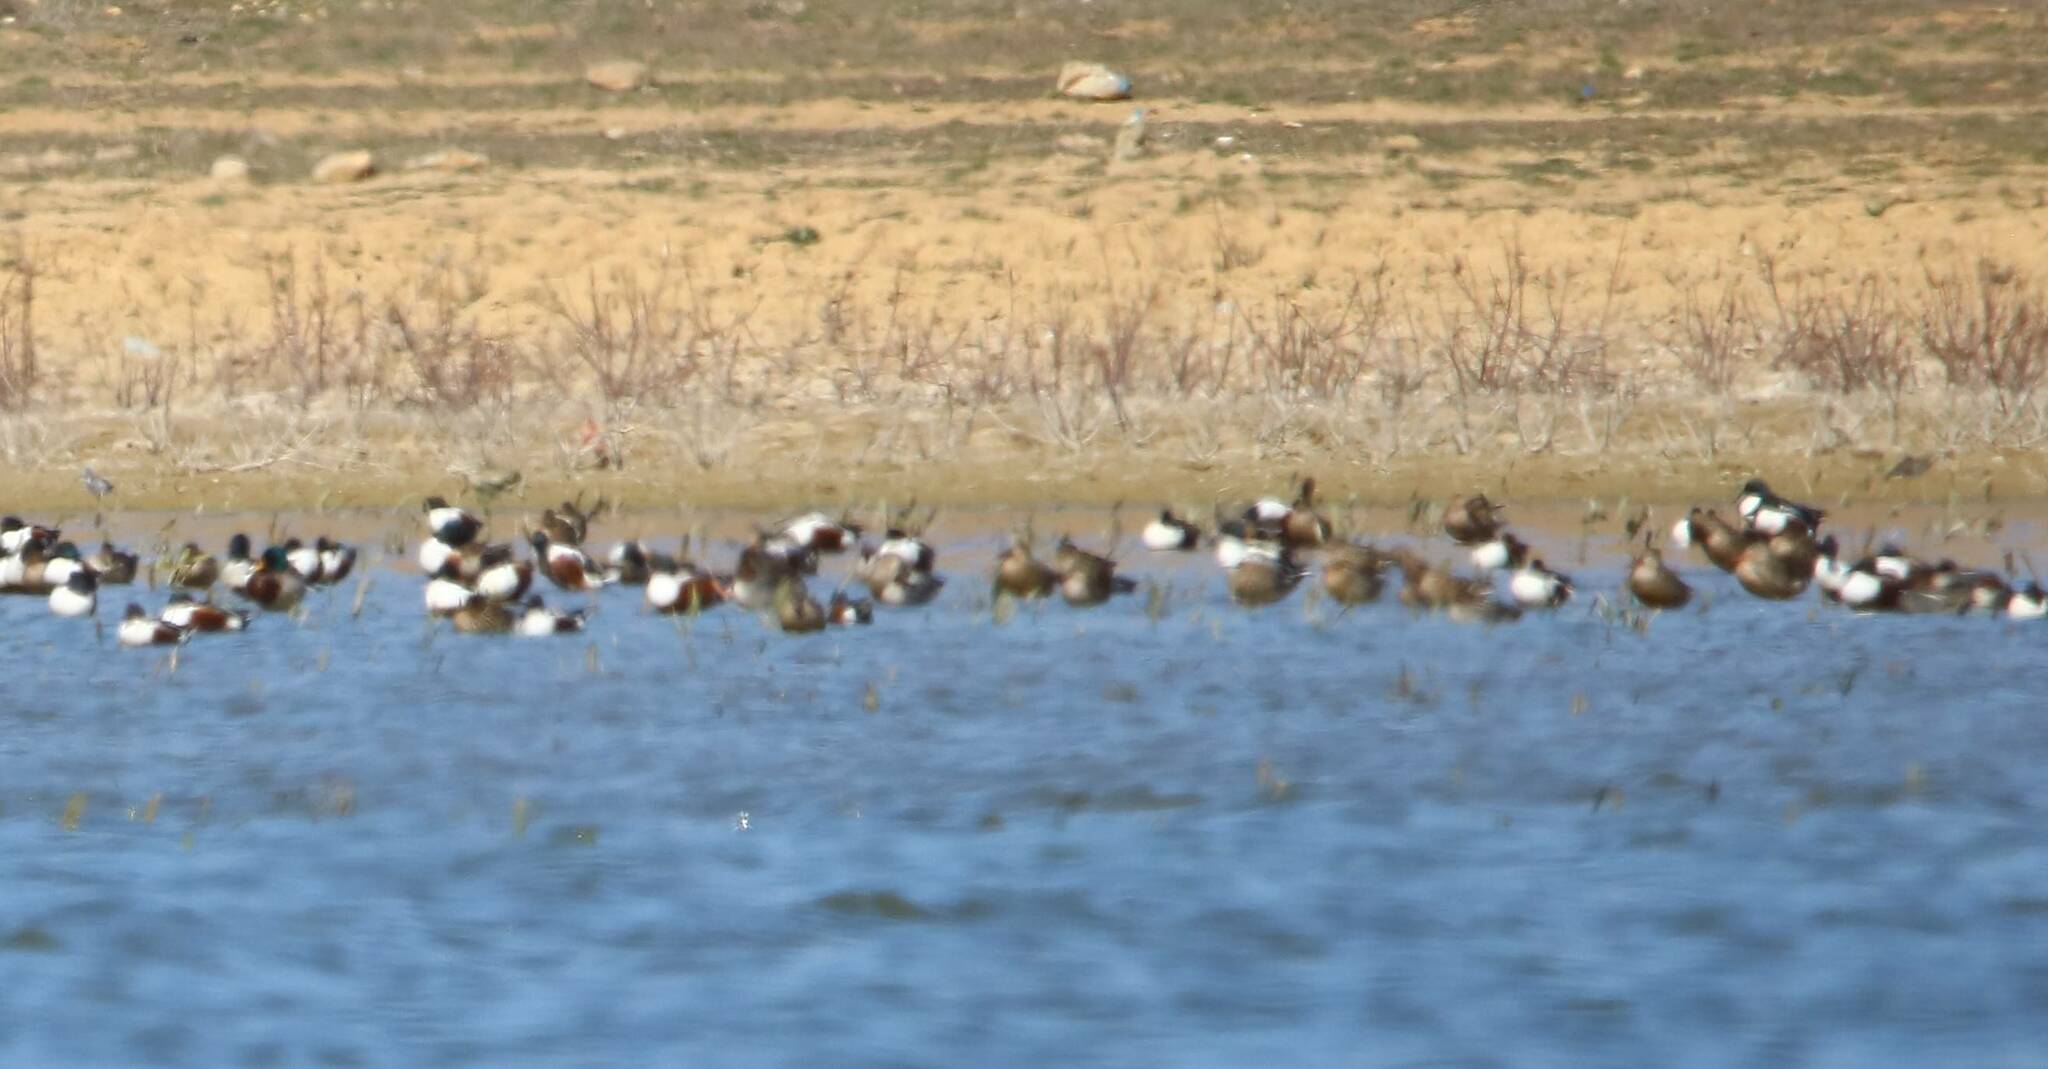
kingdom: Animalia
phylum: Chordata
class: Aves
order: Anseriformes
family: Anatidae
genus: Spatula
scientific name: Spatula clypeata
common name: Northern shoveler
